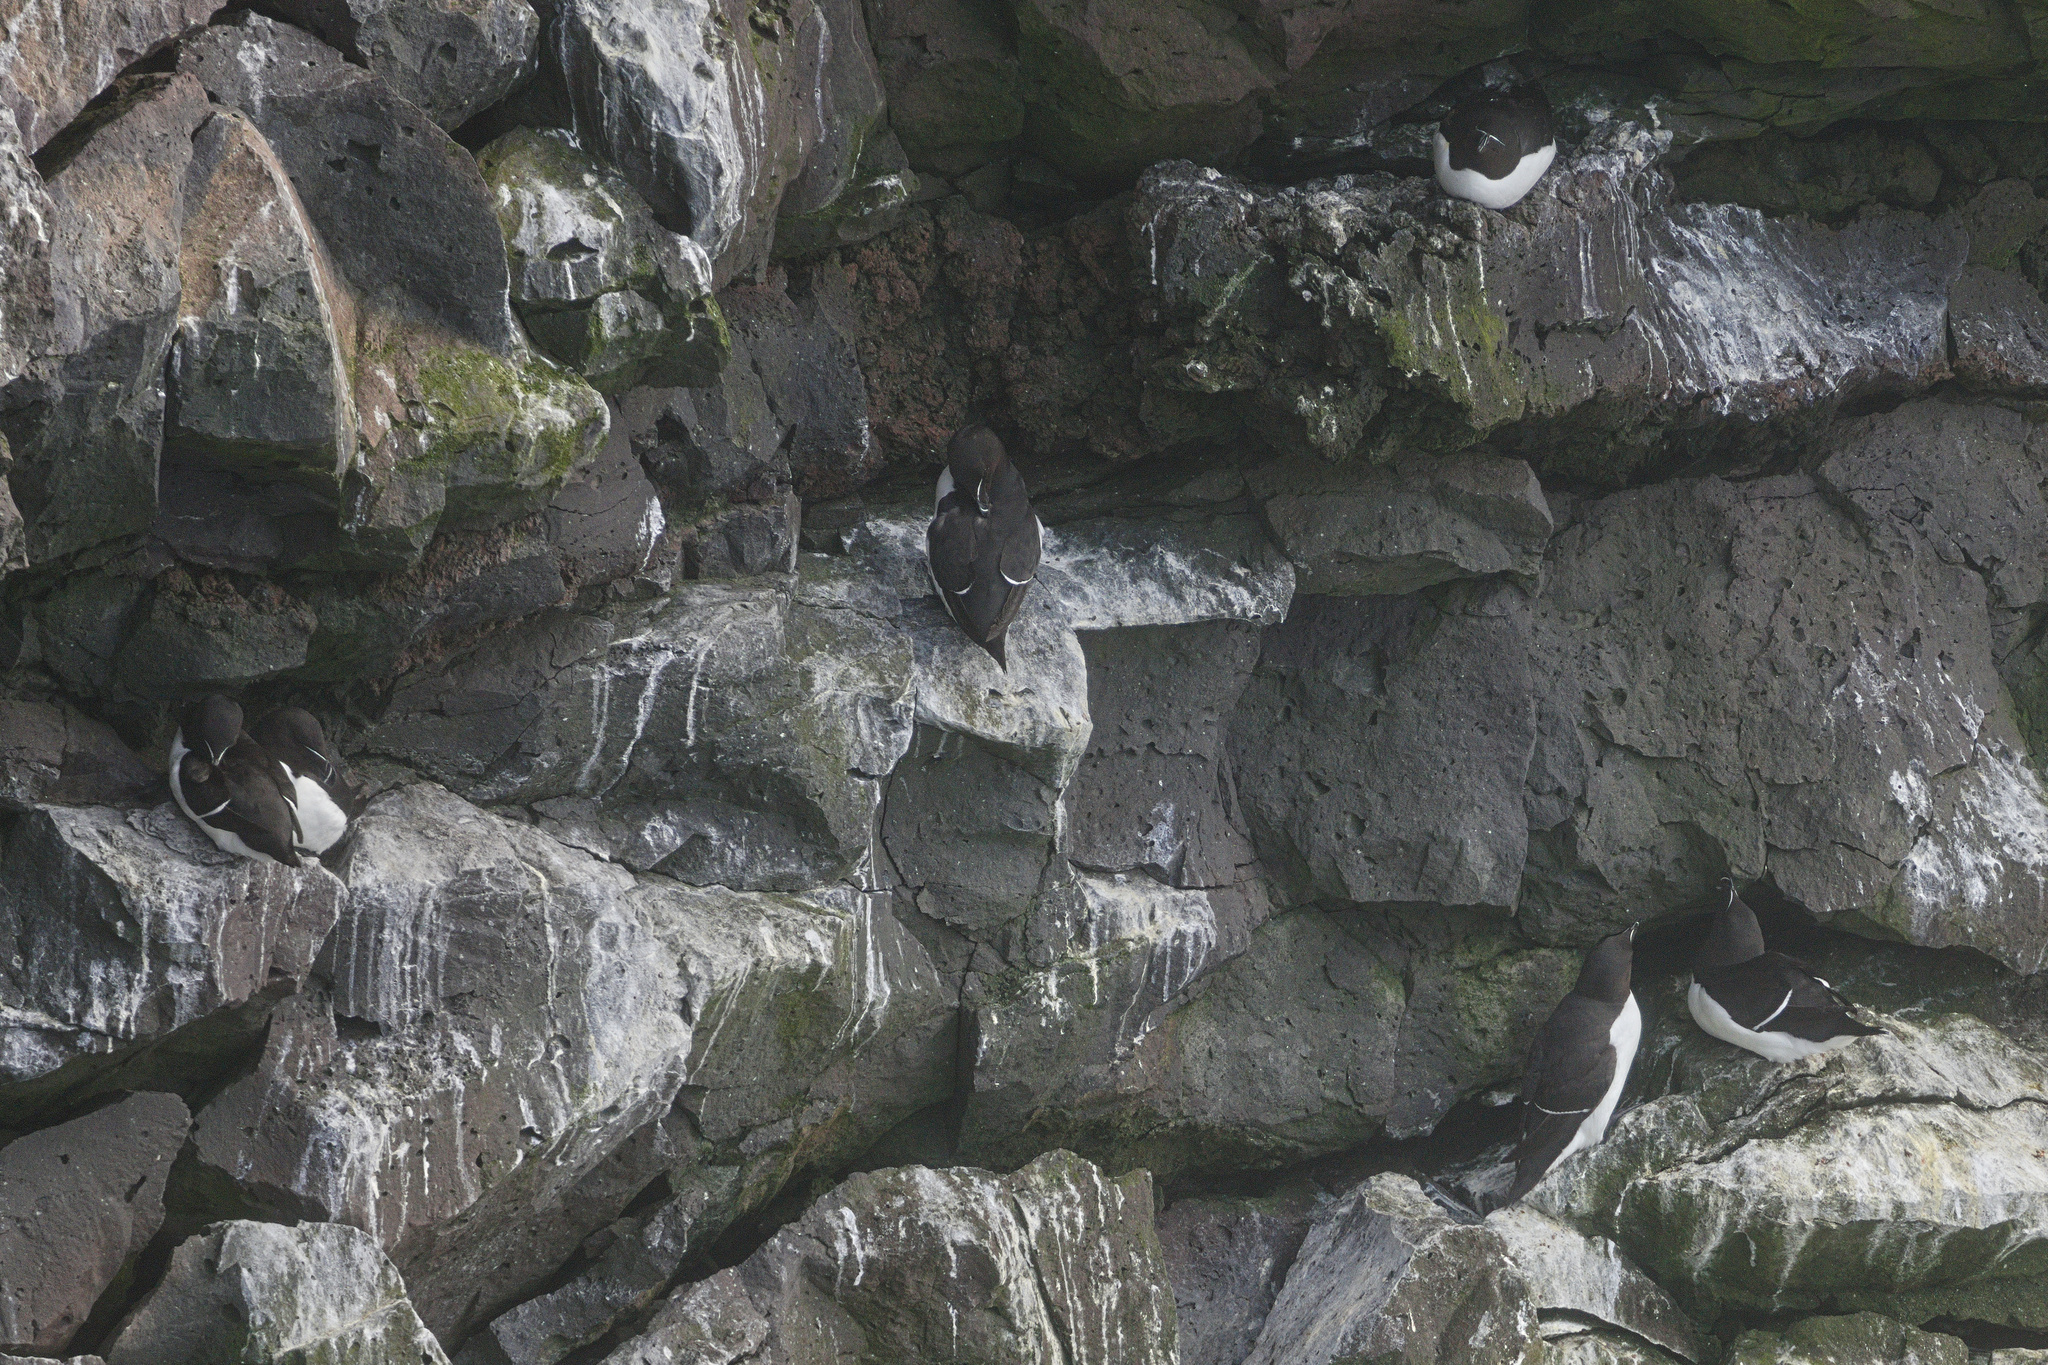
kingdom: Animalia
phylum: Chordata
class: Aves
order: Charadriiformes
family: Alcidae
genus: Alca
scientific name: Alca torda
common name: Razorbill
